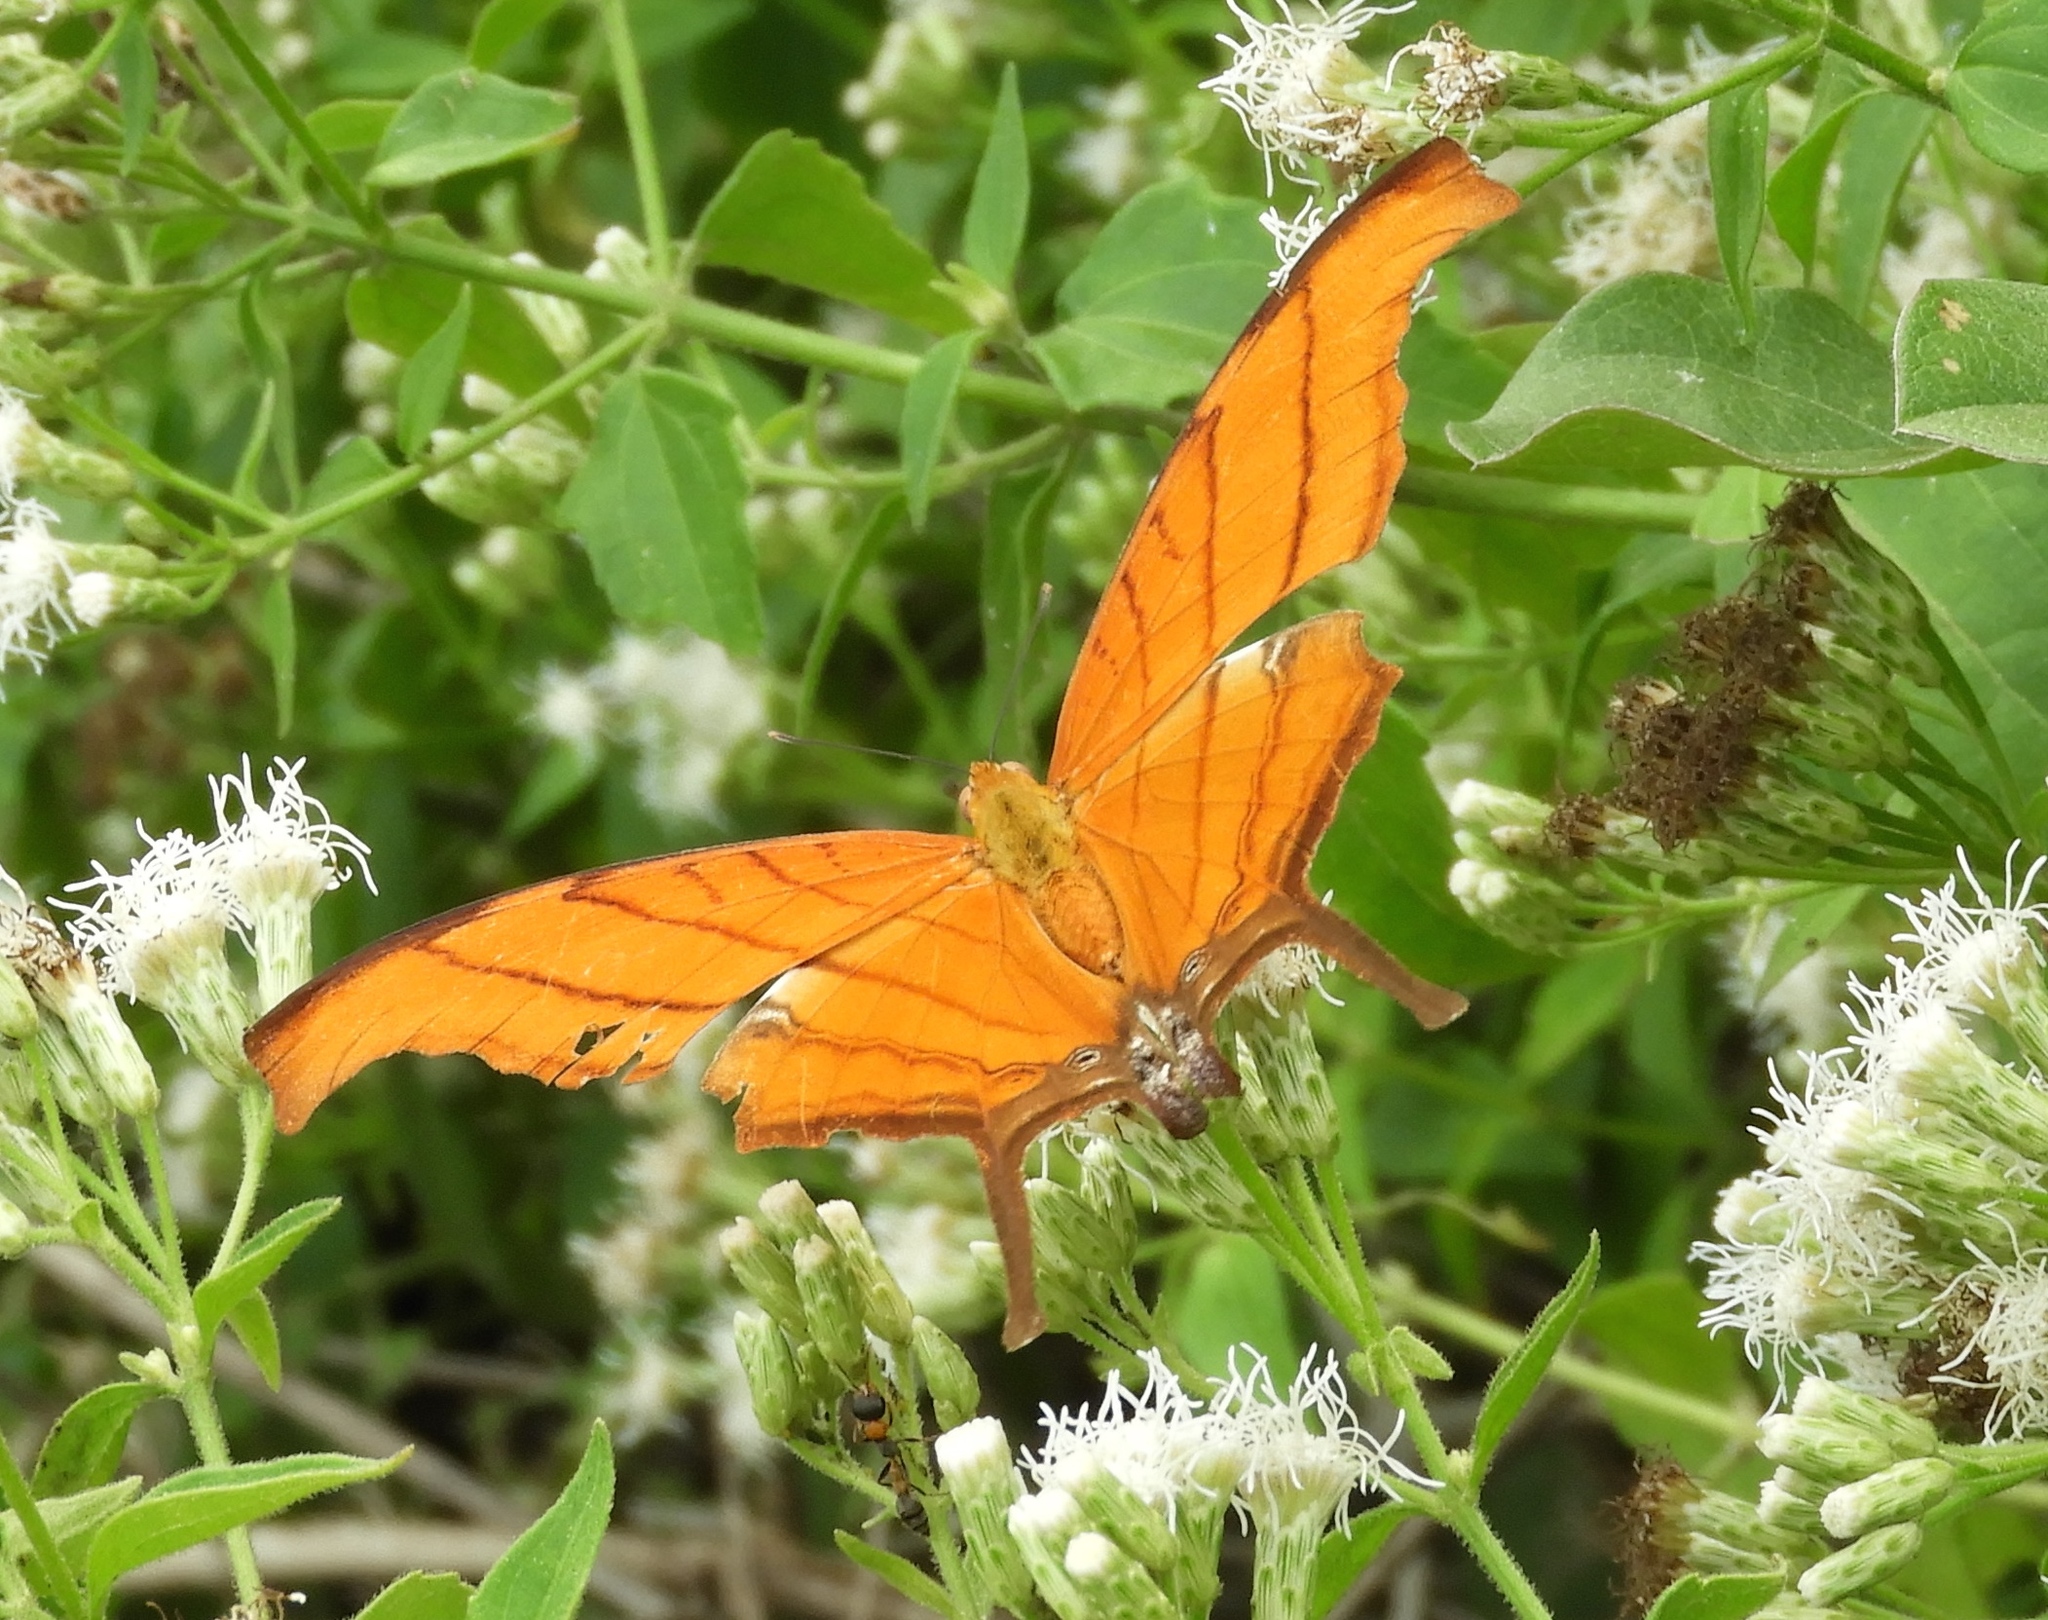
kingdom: Animalia
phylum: Arthropoda
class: Insecta
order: Lepidoptera
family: Nymphalidae
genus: Marpesia
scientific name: Marpesia petreus
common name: Red dagger wing
